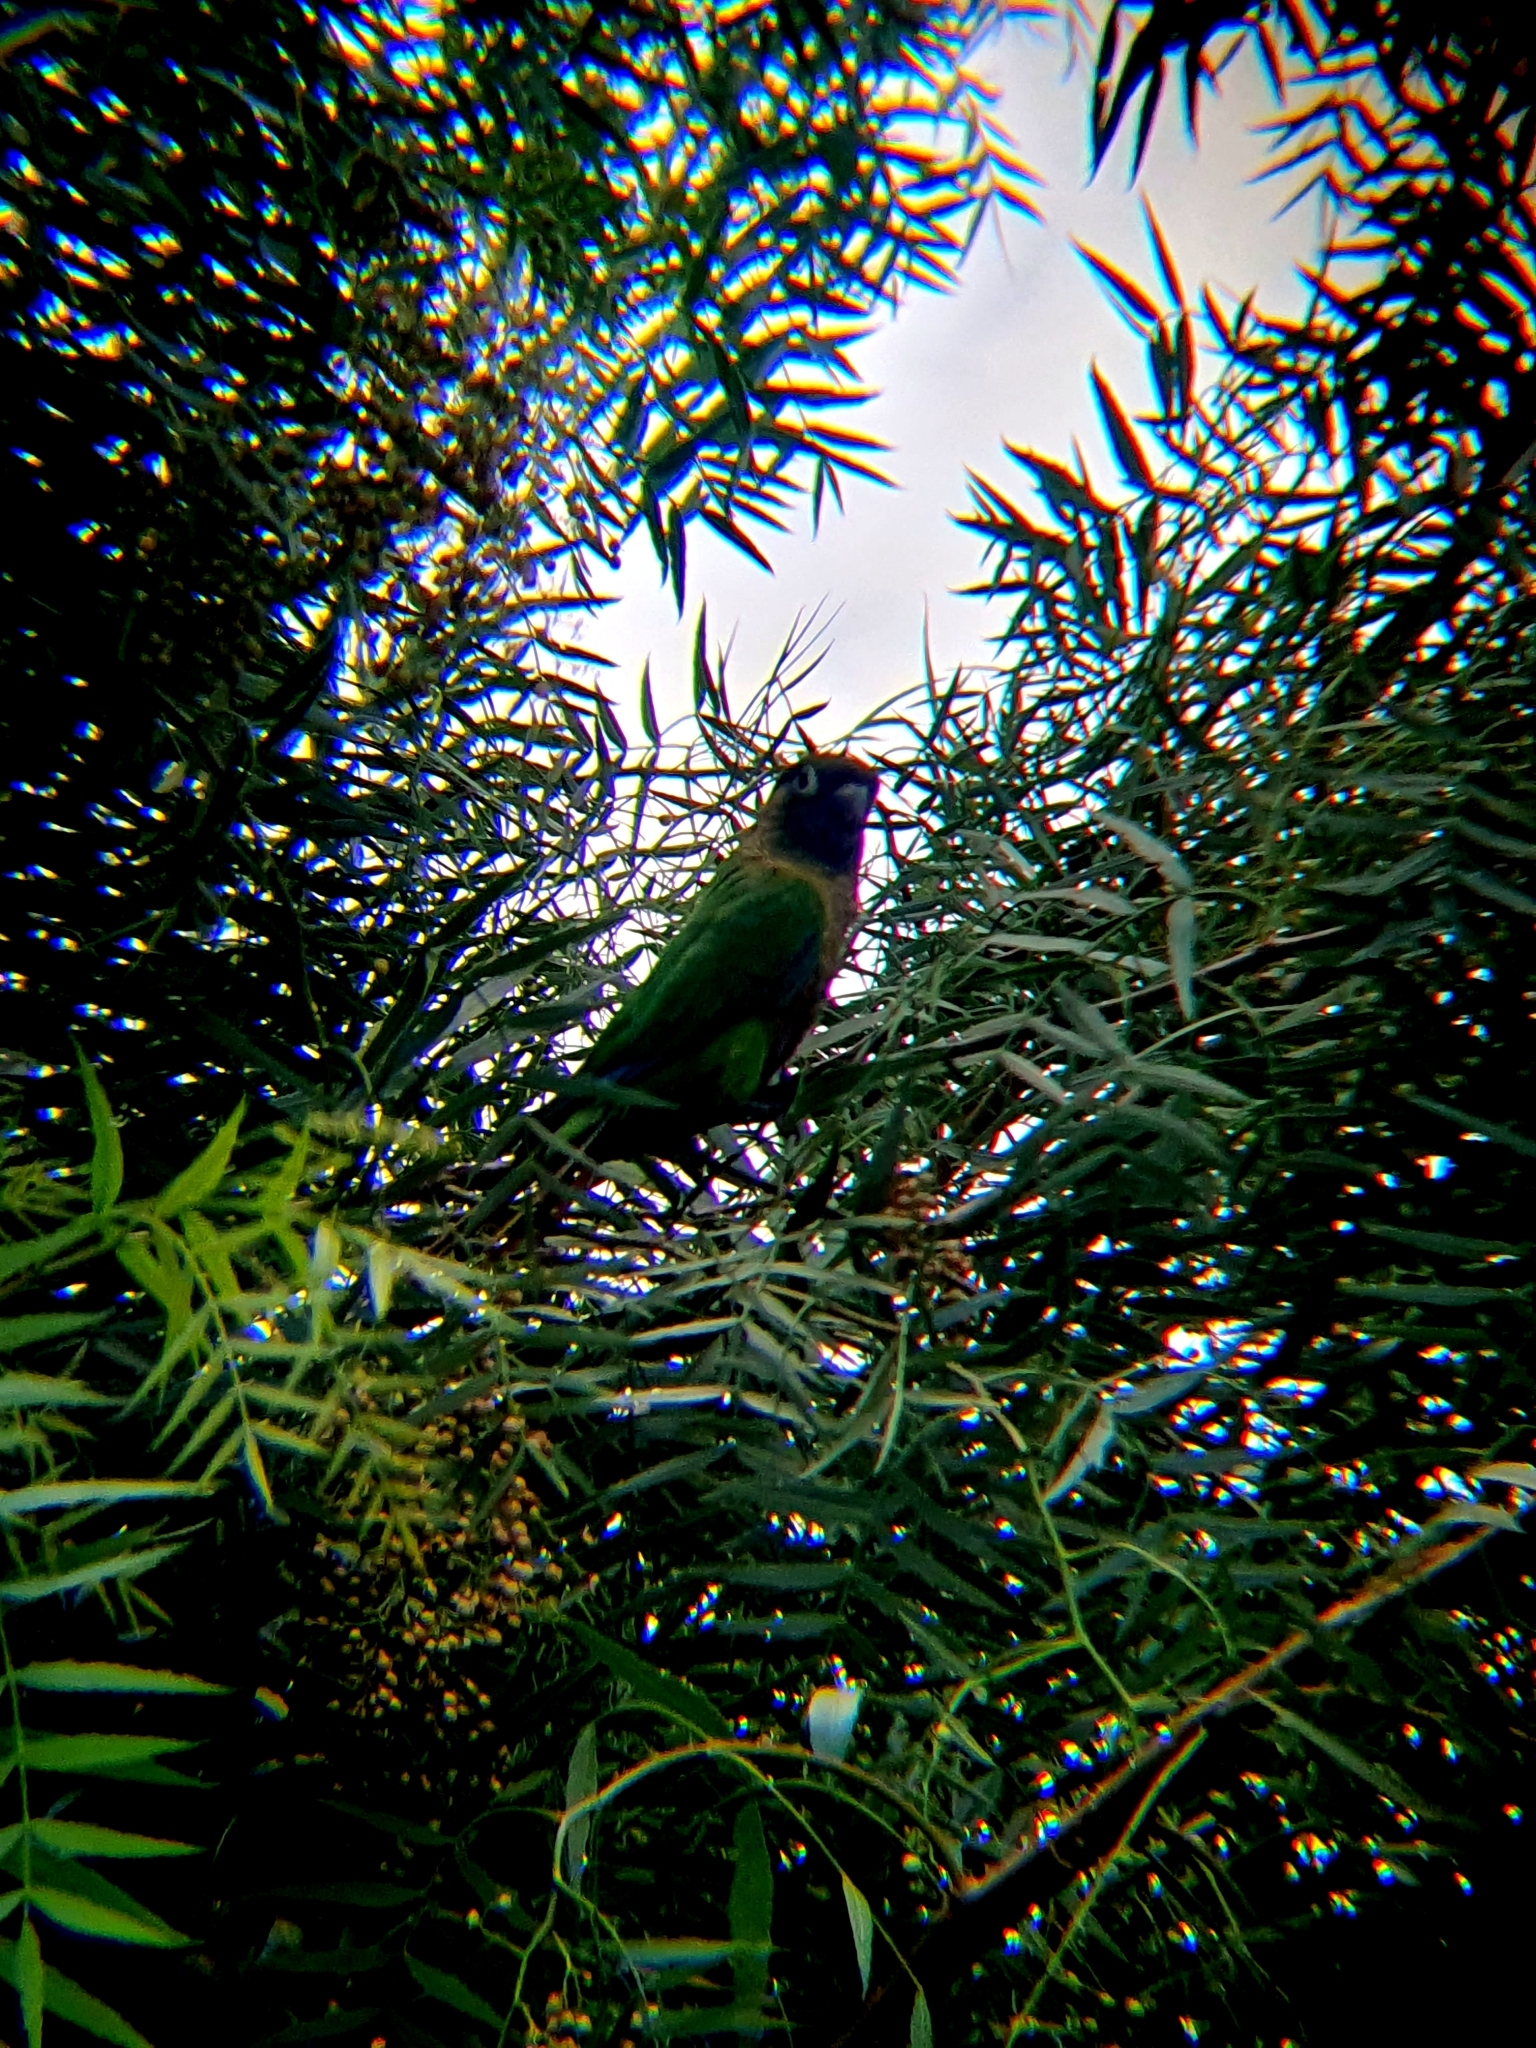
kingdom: Animalia
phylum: Chordata
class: Aves
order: Psittaciformes
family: Psittacidae
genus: Pyrrhura
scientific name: Pyrrhura frontalis
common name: Maroon-bellied parakeet
